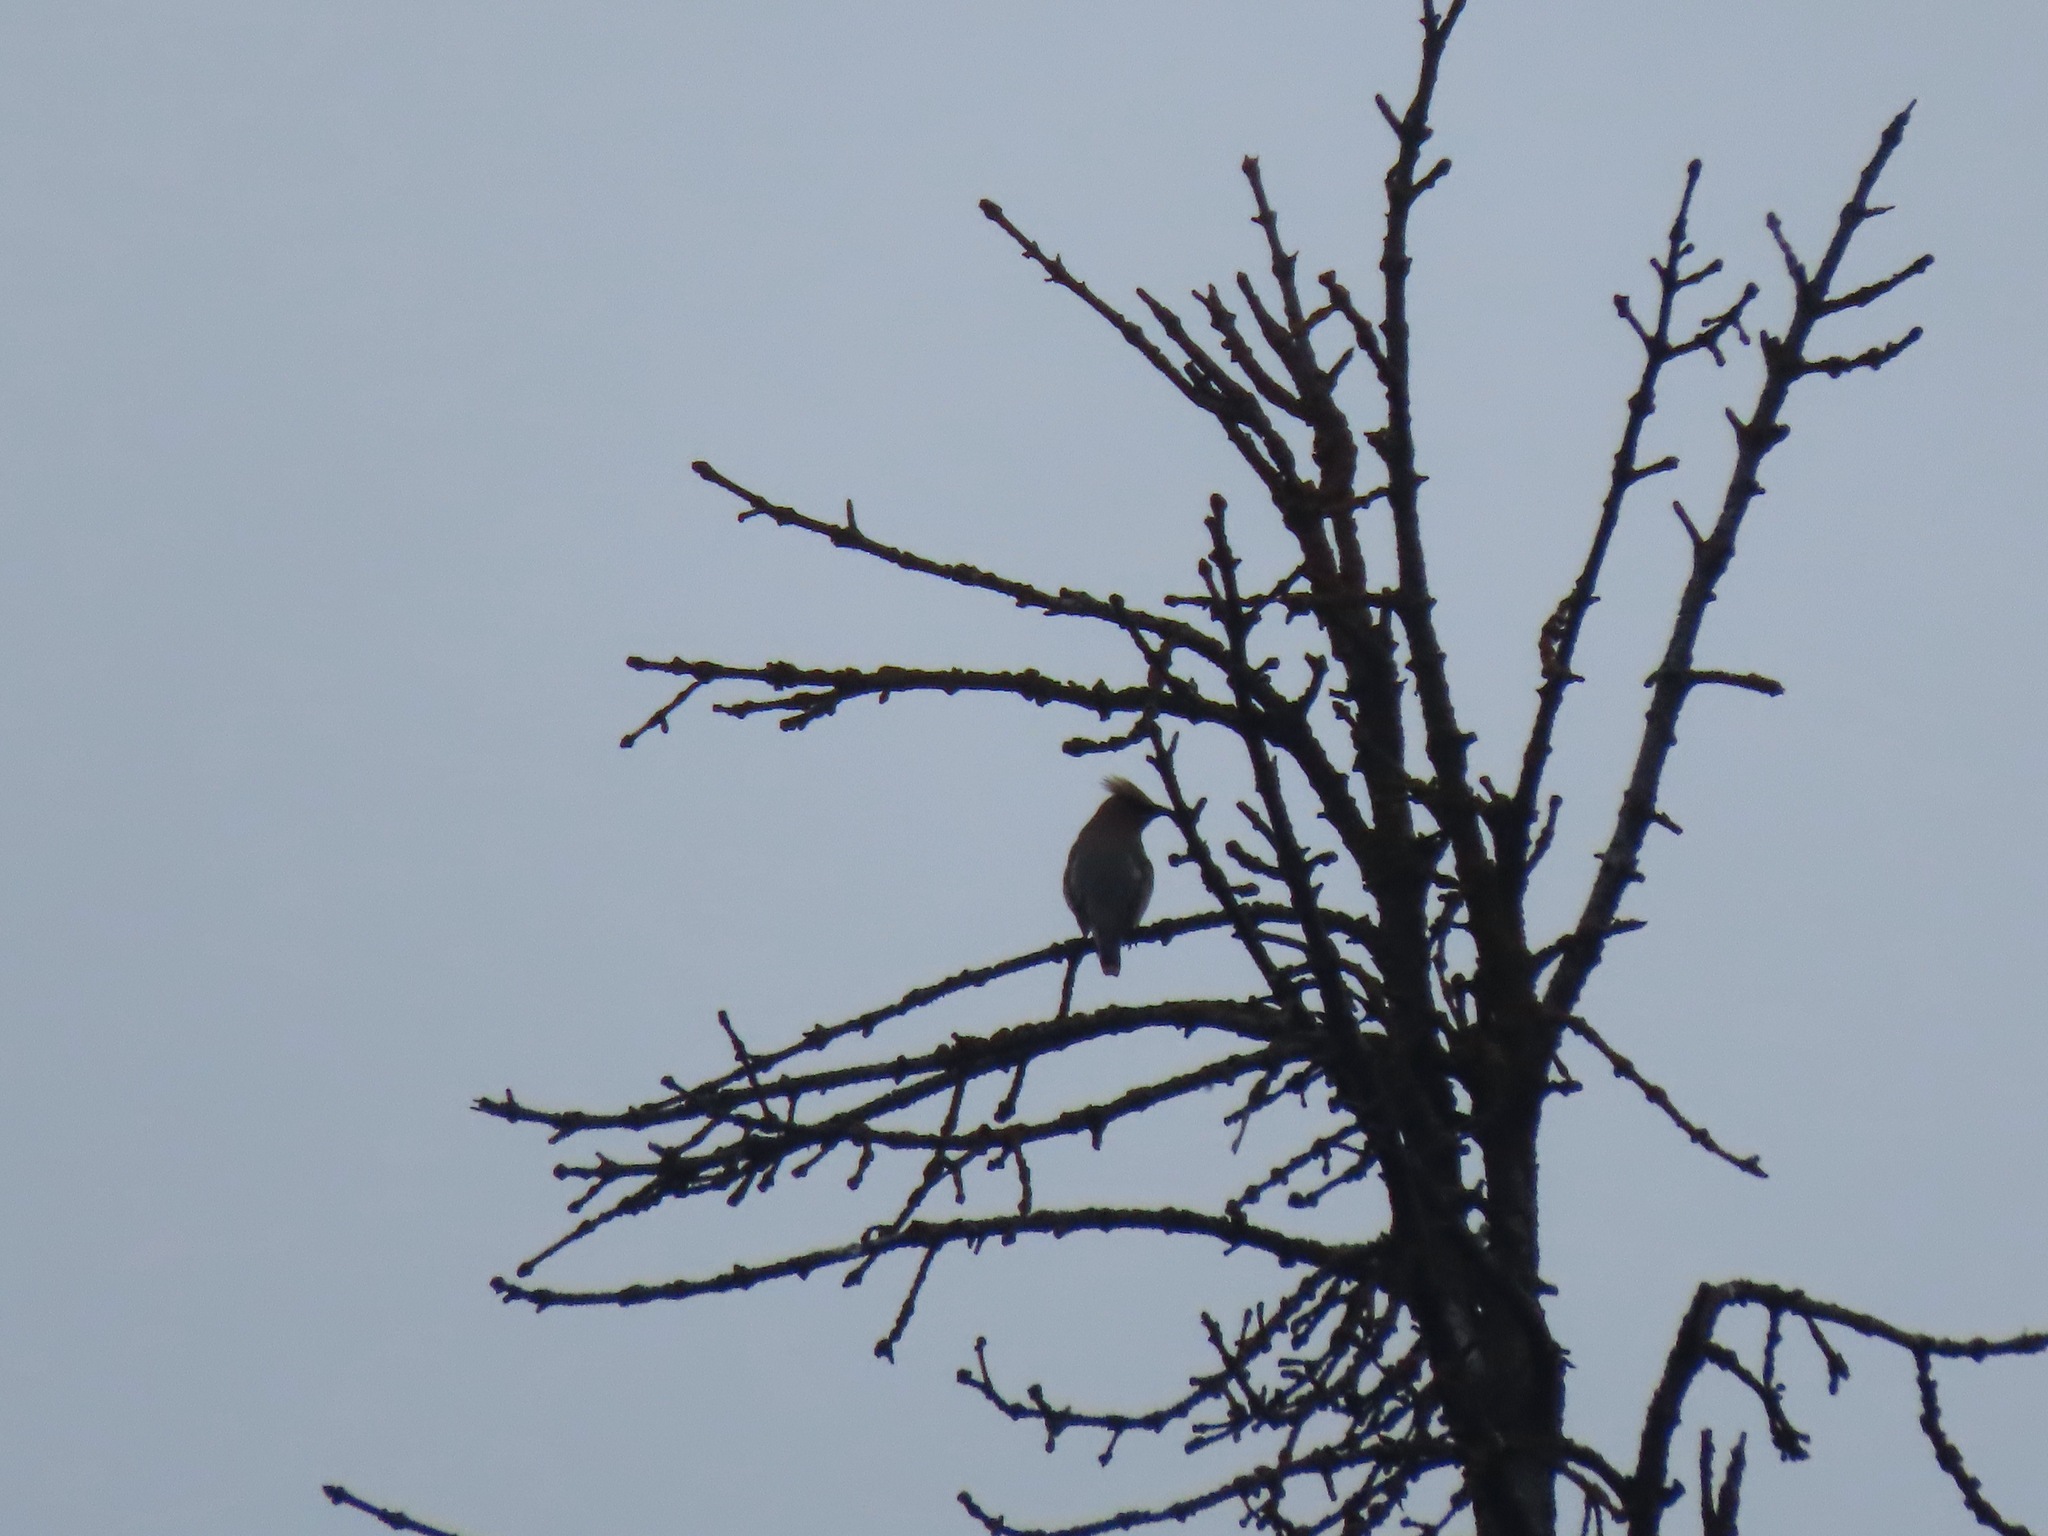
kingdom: Animalia
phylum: Chordata
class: Aves
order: Passeriformes
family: Bombycillidae
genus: Bombycilla
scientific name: Bombycilla cedrorum
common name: Cedar waxwing
